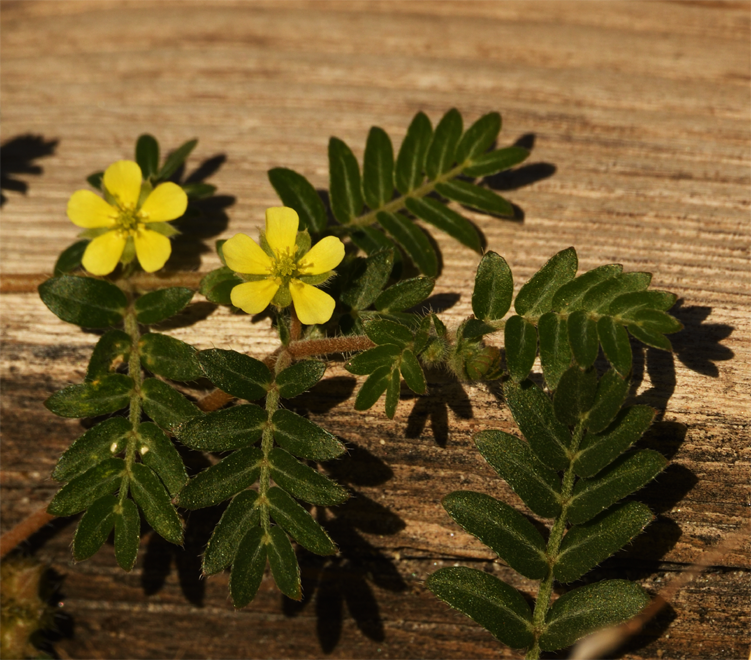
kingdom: Plantae
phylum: Tracheophyta
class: Magnoliopsida
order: Zygophyllales
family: Zygophyllaceae
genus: Tribulus
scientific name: Tribulus terrestris
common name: Puncturevine
